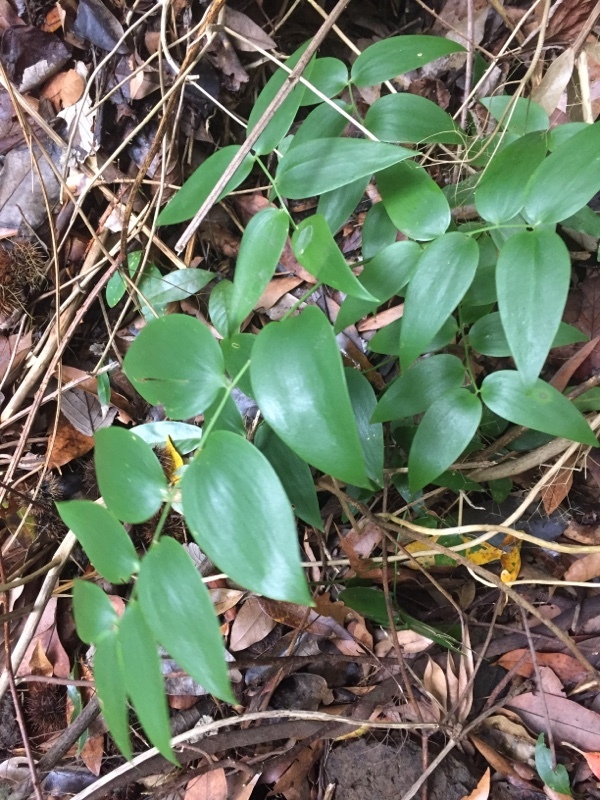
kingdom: Plantae
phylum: Tracheophyta
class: Liliopsida
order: Asparagales
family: Asparagaceae
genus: Semele
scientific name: Semele androgyna
